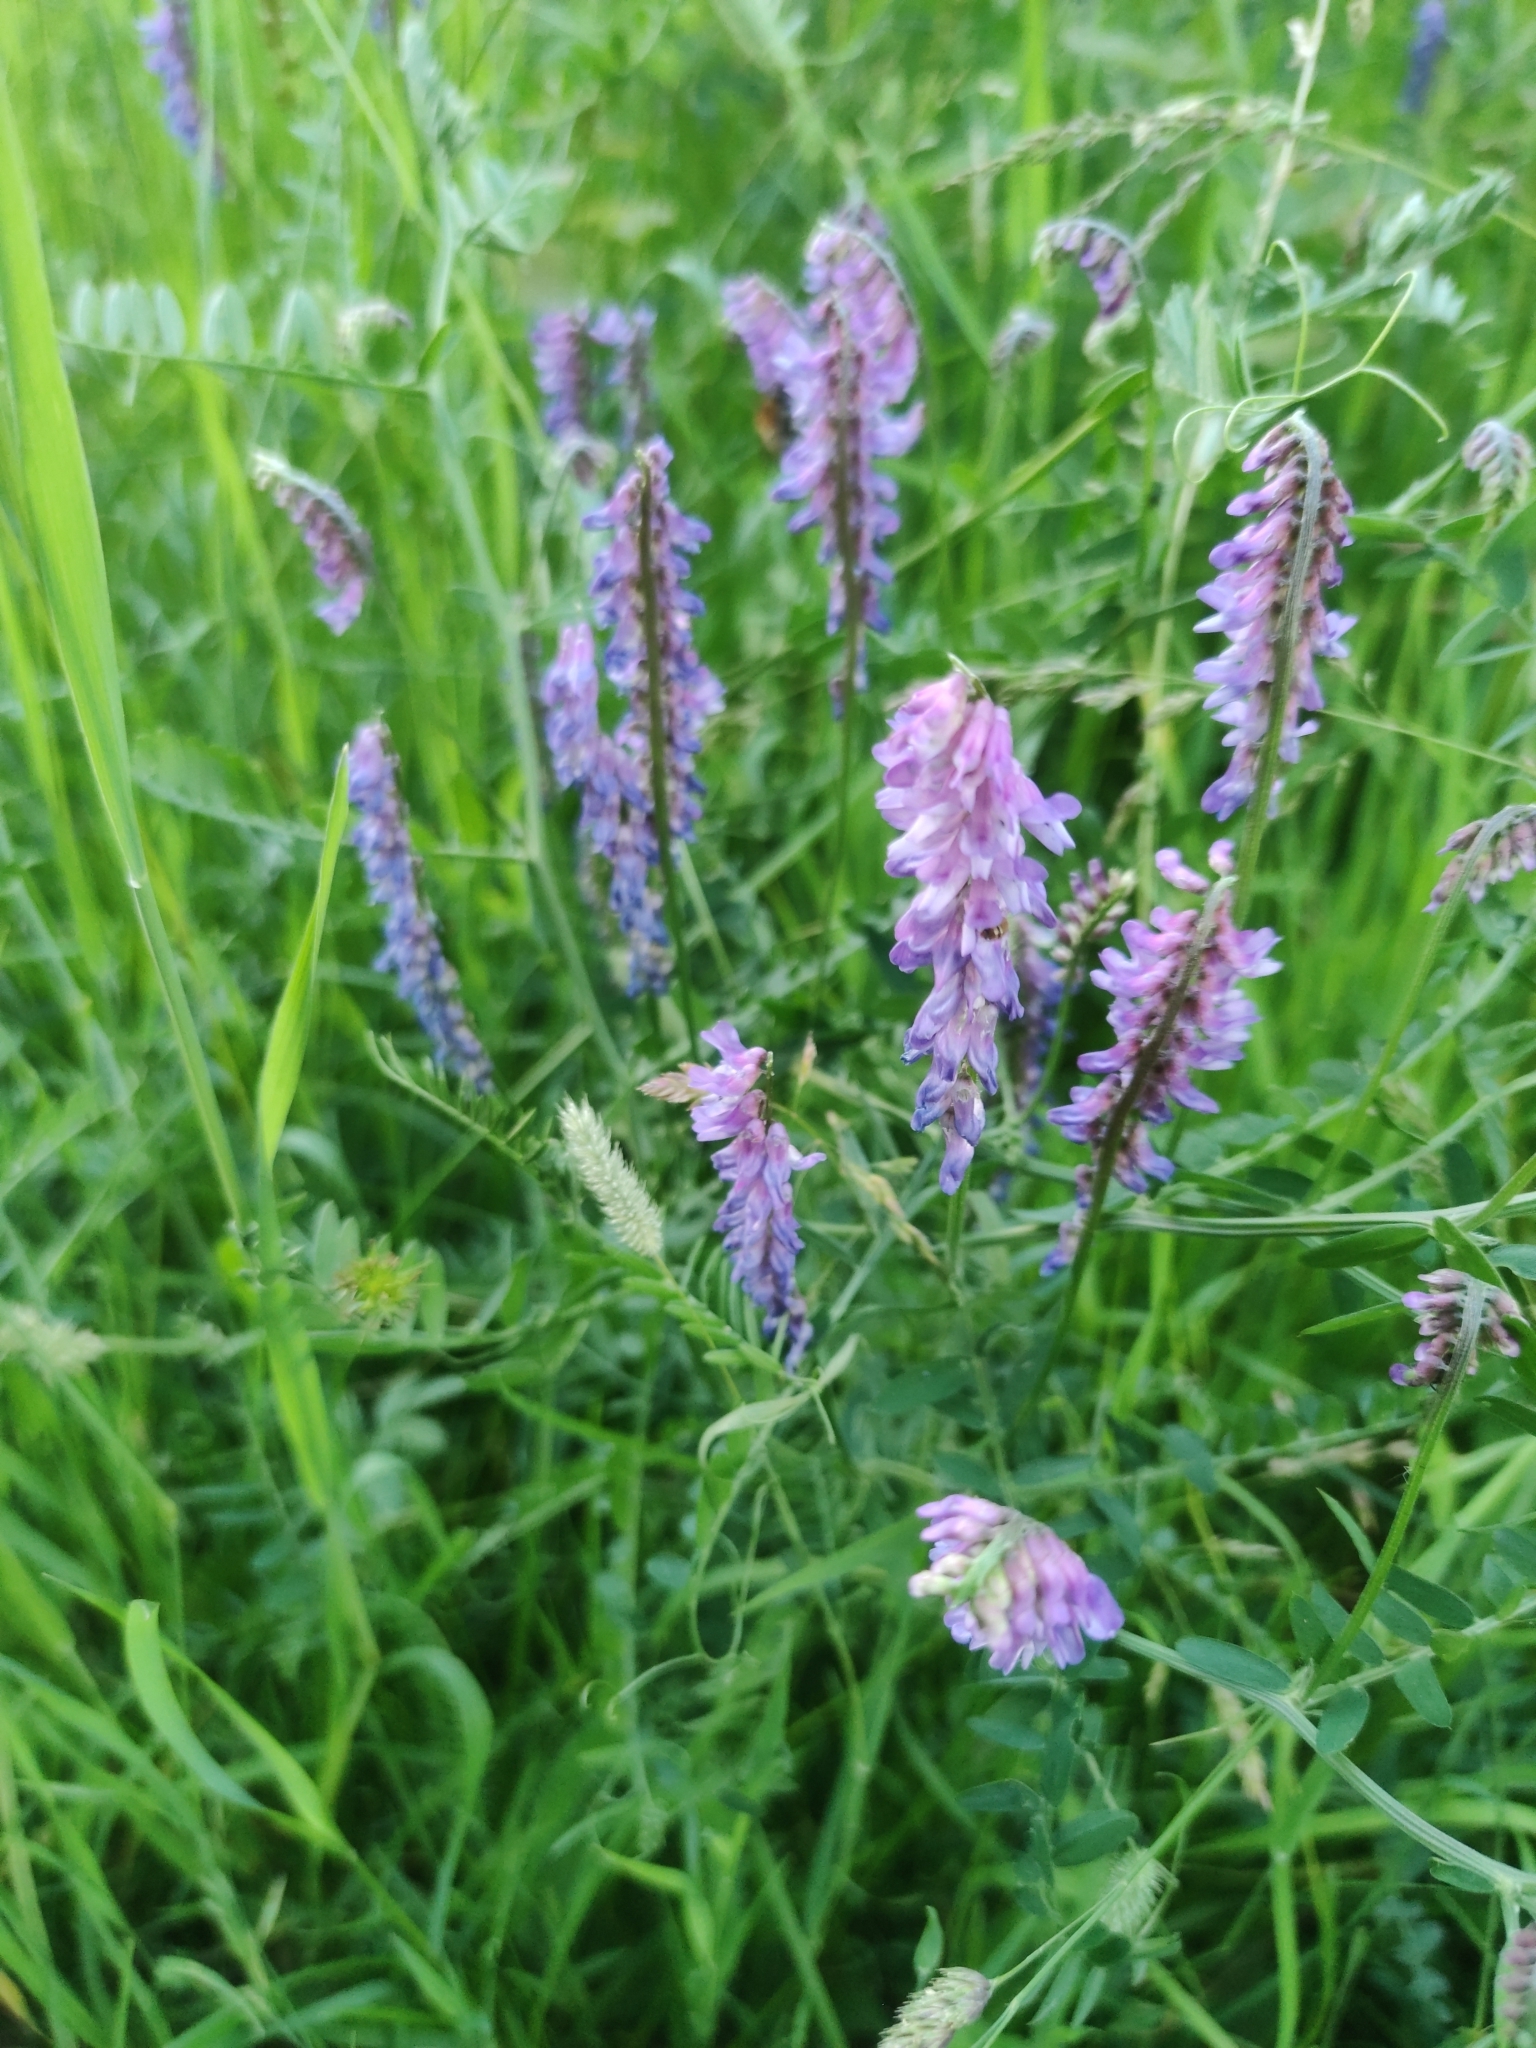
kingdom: Plantae
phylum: Tracheophyta
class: Magnoliopsida
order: Fabales
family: Fabaceae
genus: Vicia
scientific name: Vicia cracca
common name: Bird vetch
